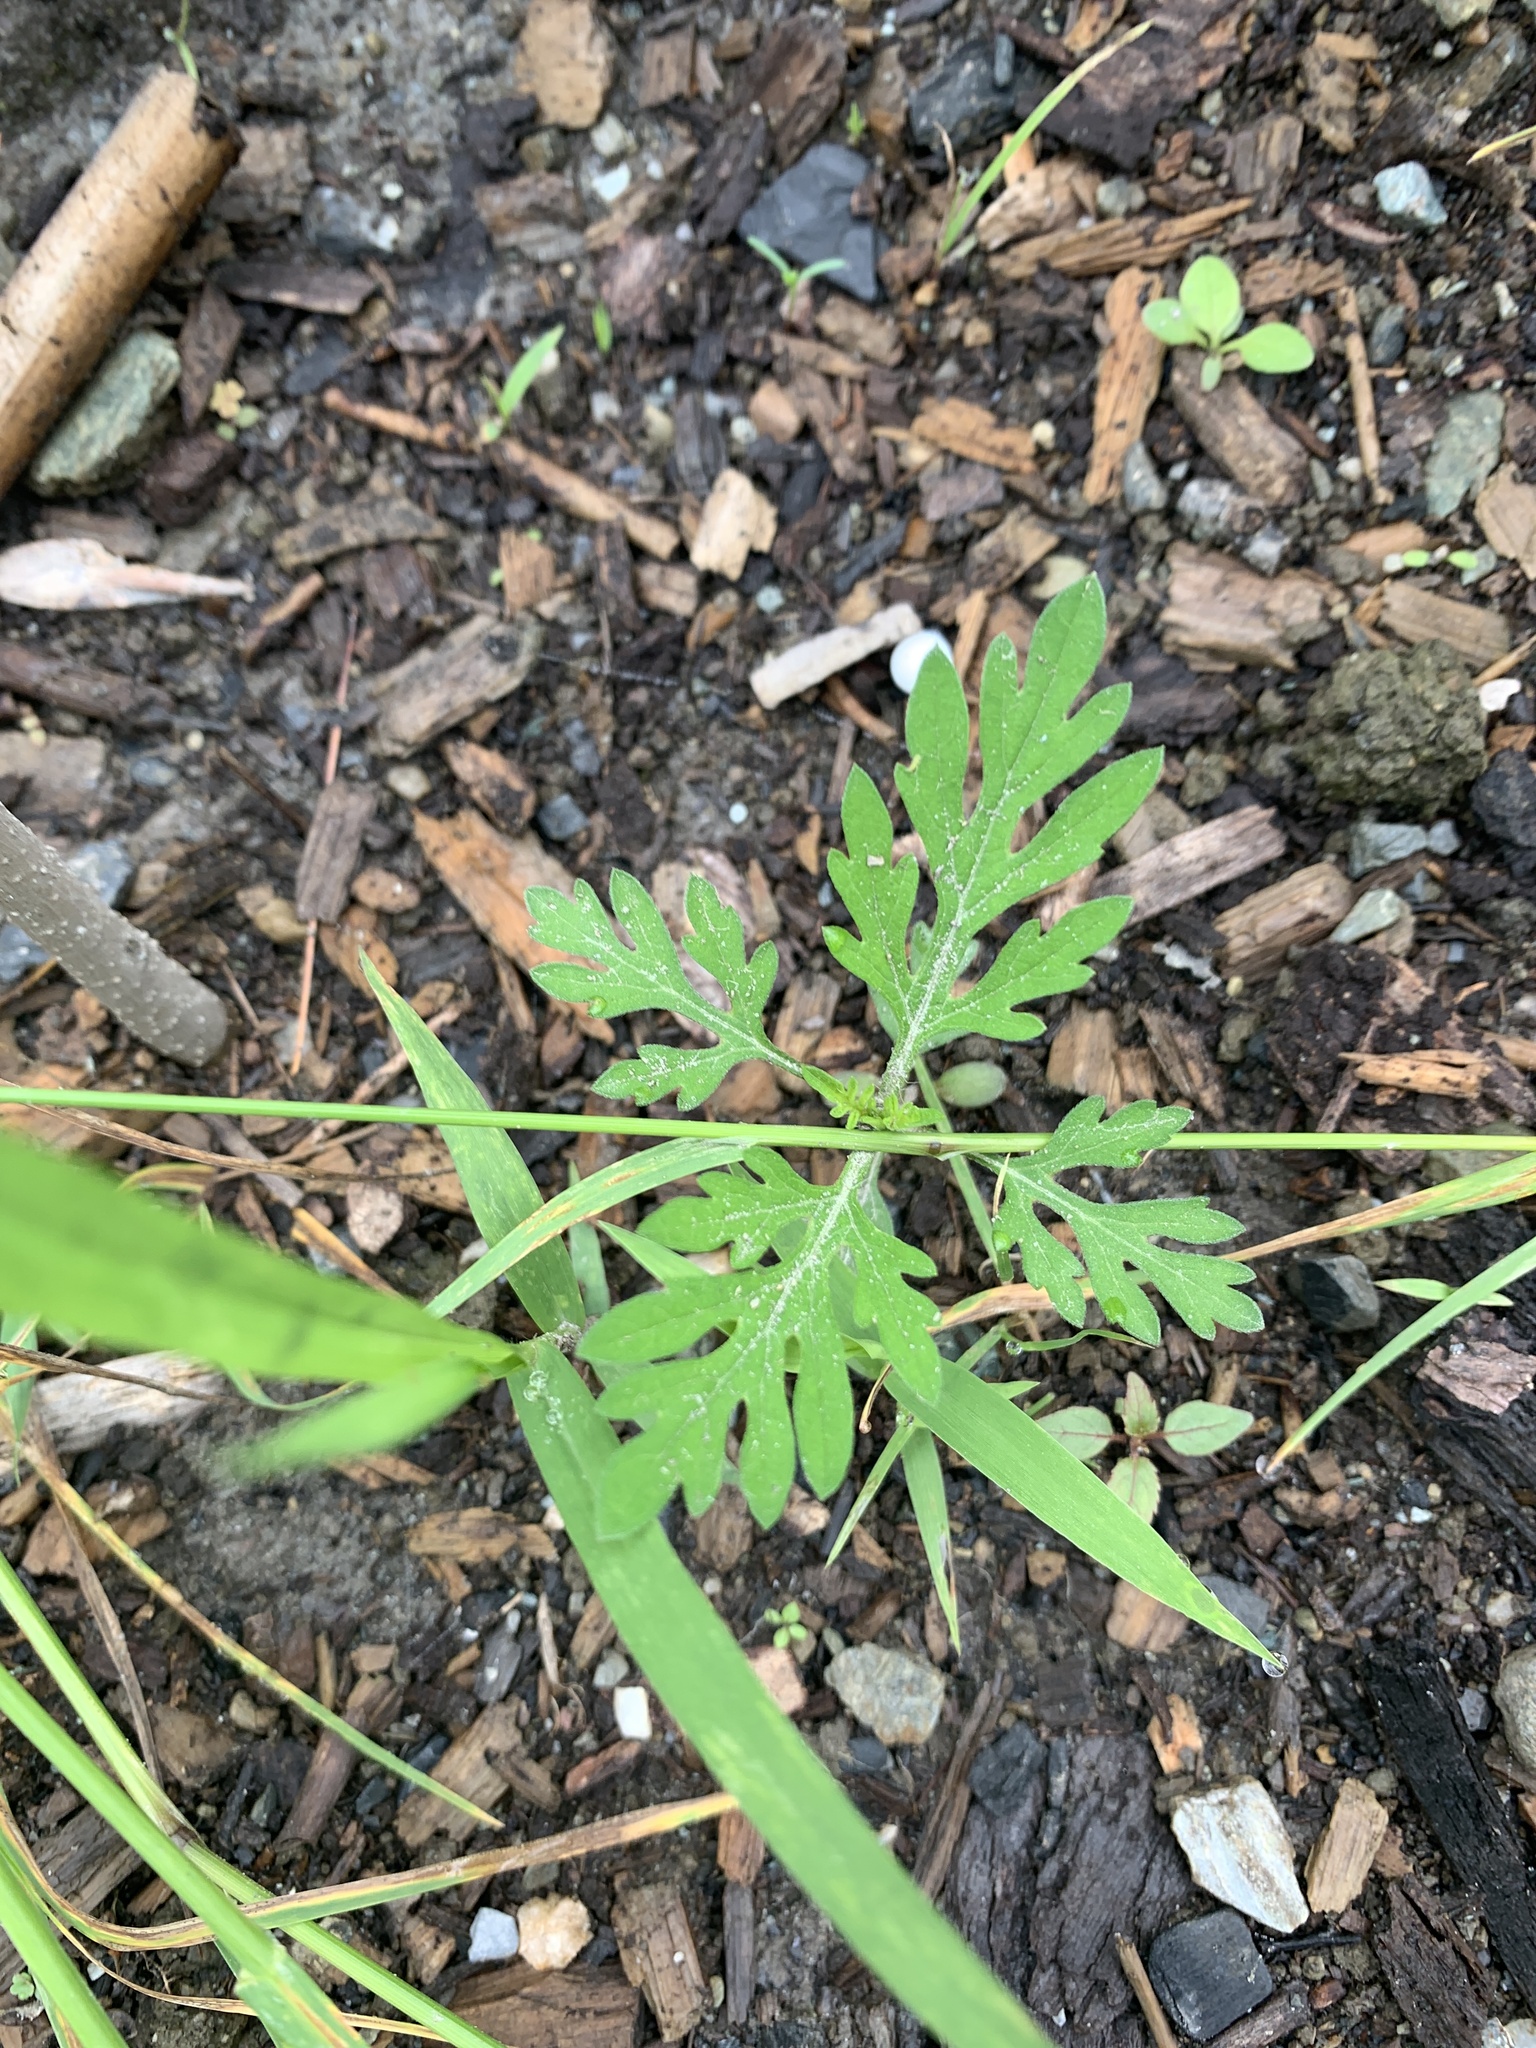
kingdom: Plantae
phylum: Tracheophyta
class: Magnoliopsida
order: Asterales
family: Asteraceae
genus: Ambrosia
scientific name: Ambrosia artemisiifolia
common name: Annual ragweed
